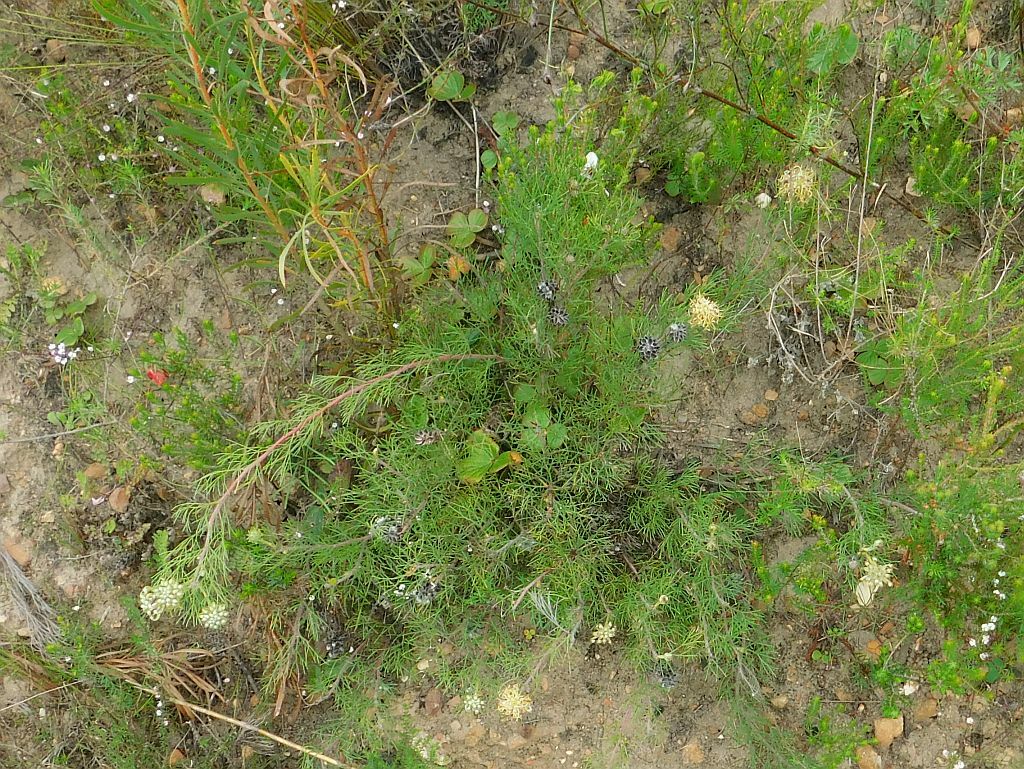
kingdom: Plantae
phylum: Tracheophyta
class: Magnoliopsida
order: Proteales
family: Proteaceae
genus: Serruria
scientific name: Serruria
